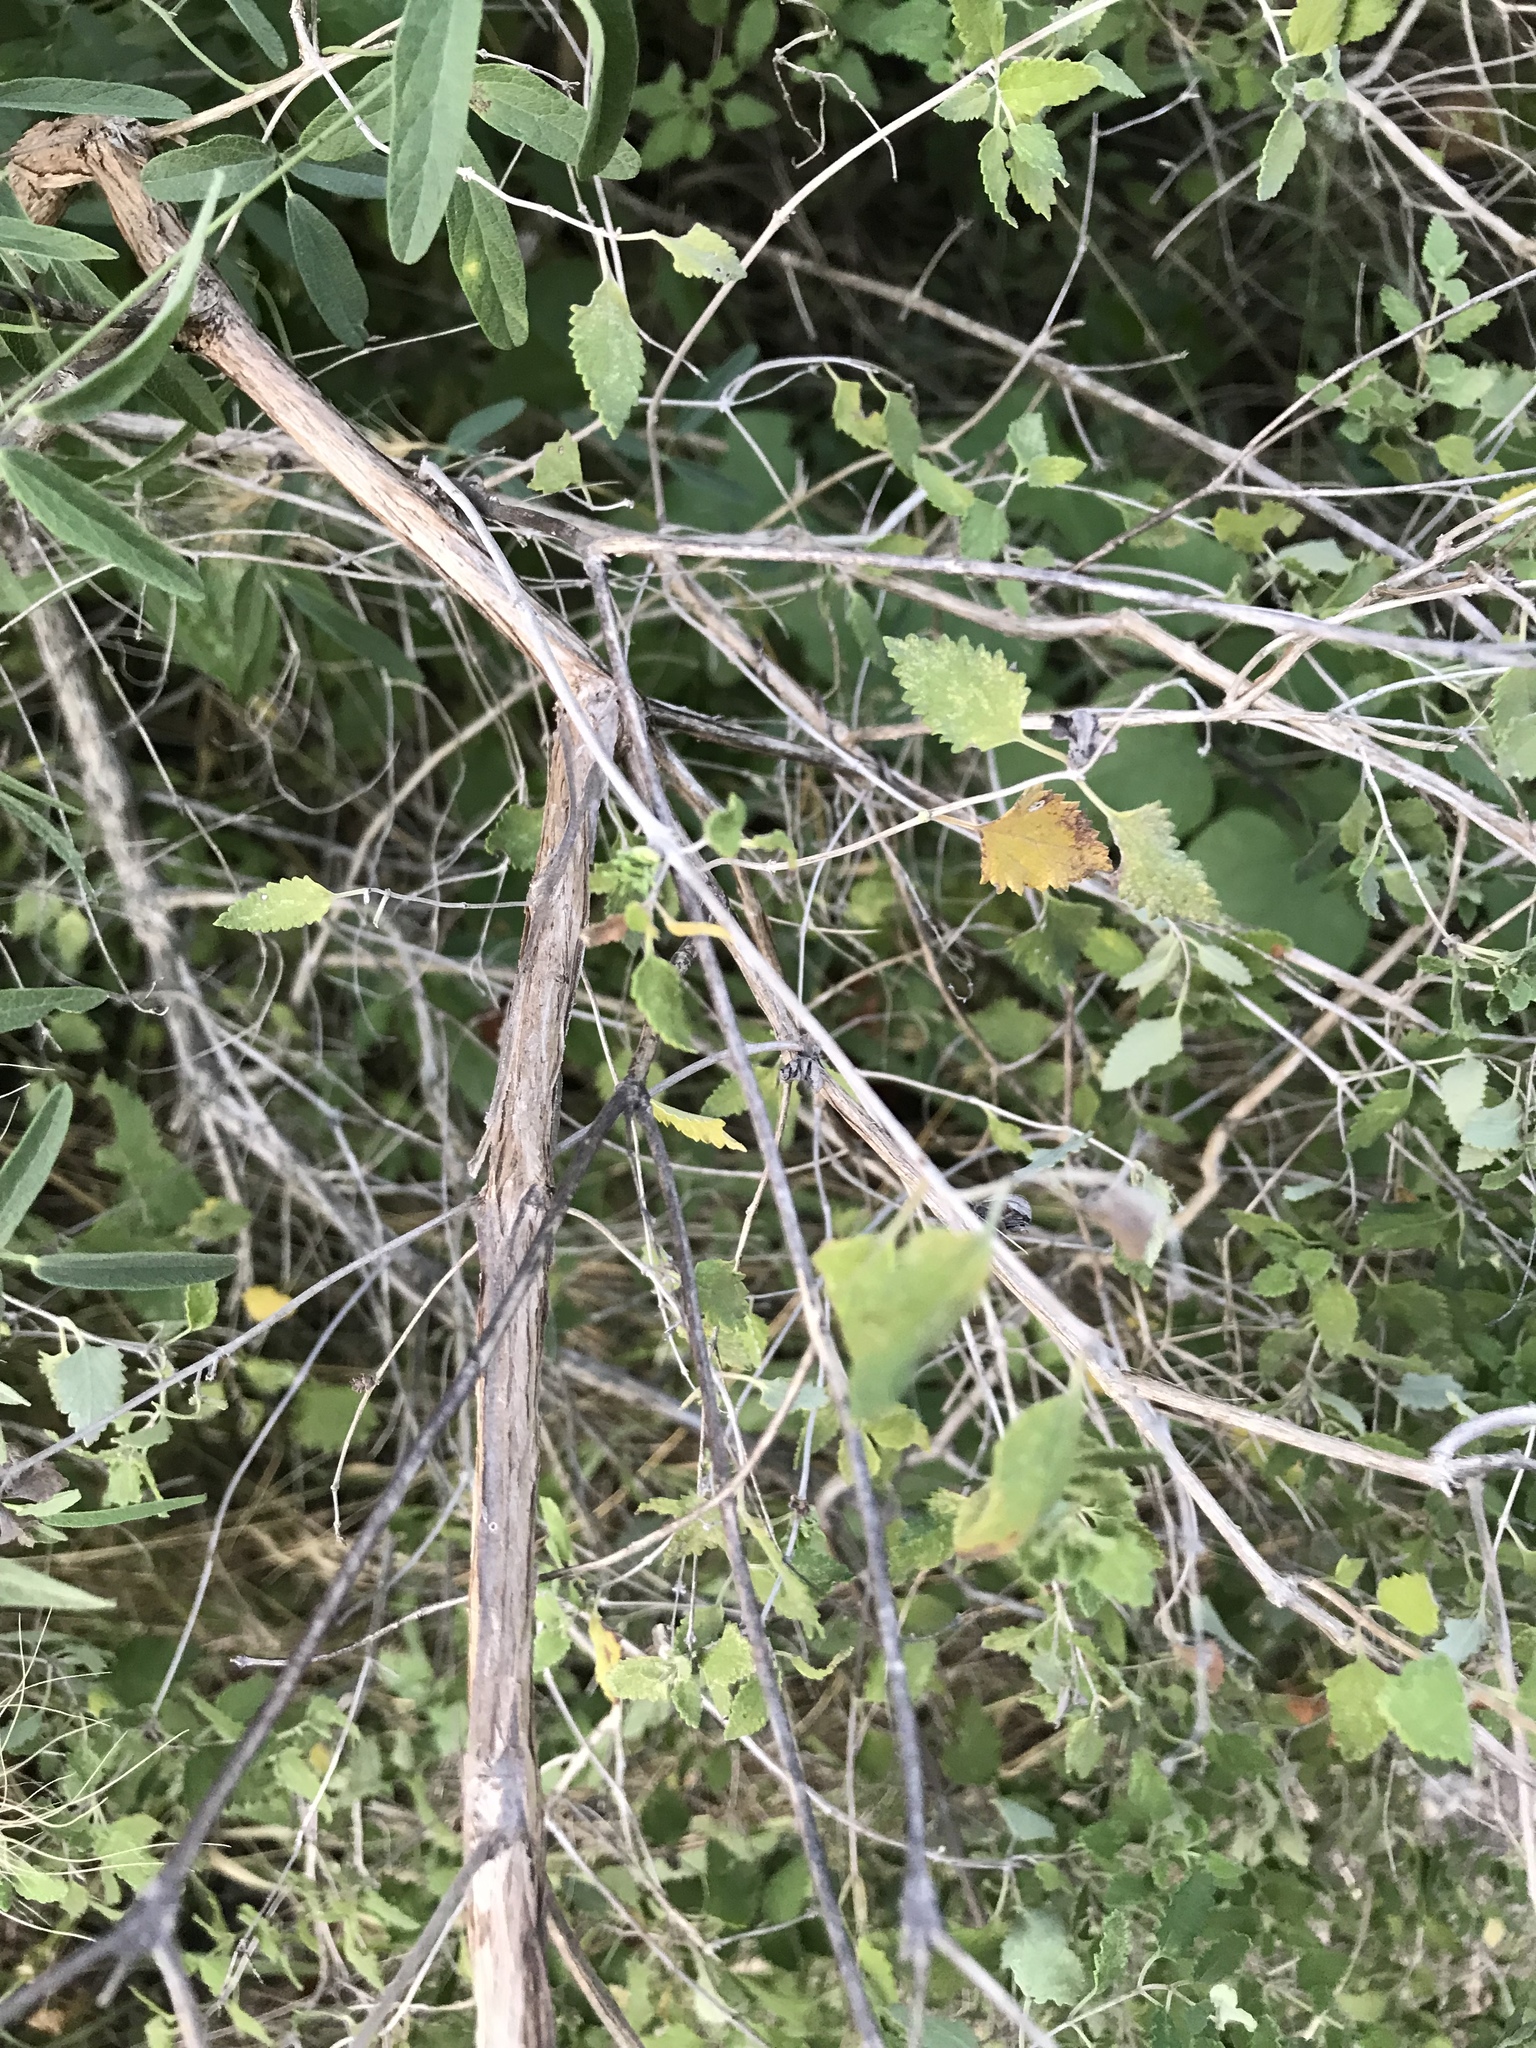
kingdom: Plantae
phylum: Tracheophyta
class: Magnoliopsida
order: Lamiales
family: Lamiaceae
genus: Salvia
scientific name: Salvia ballotiflora
